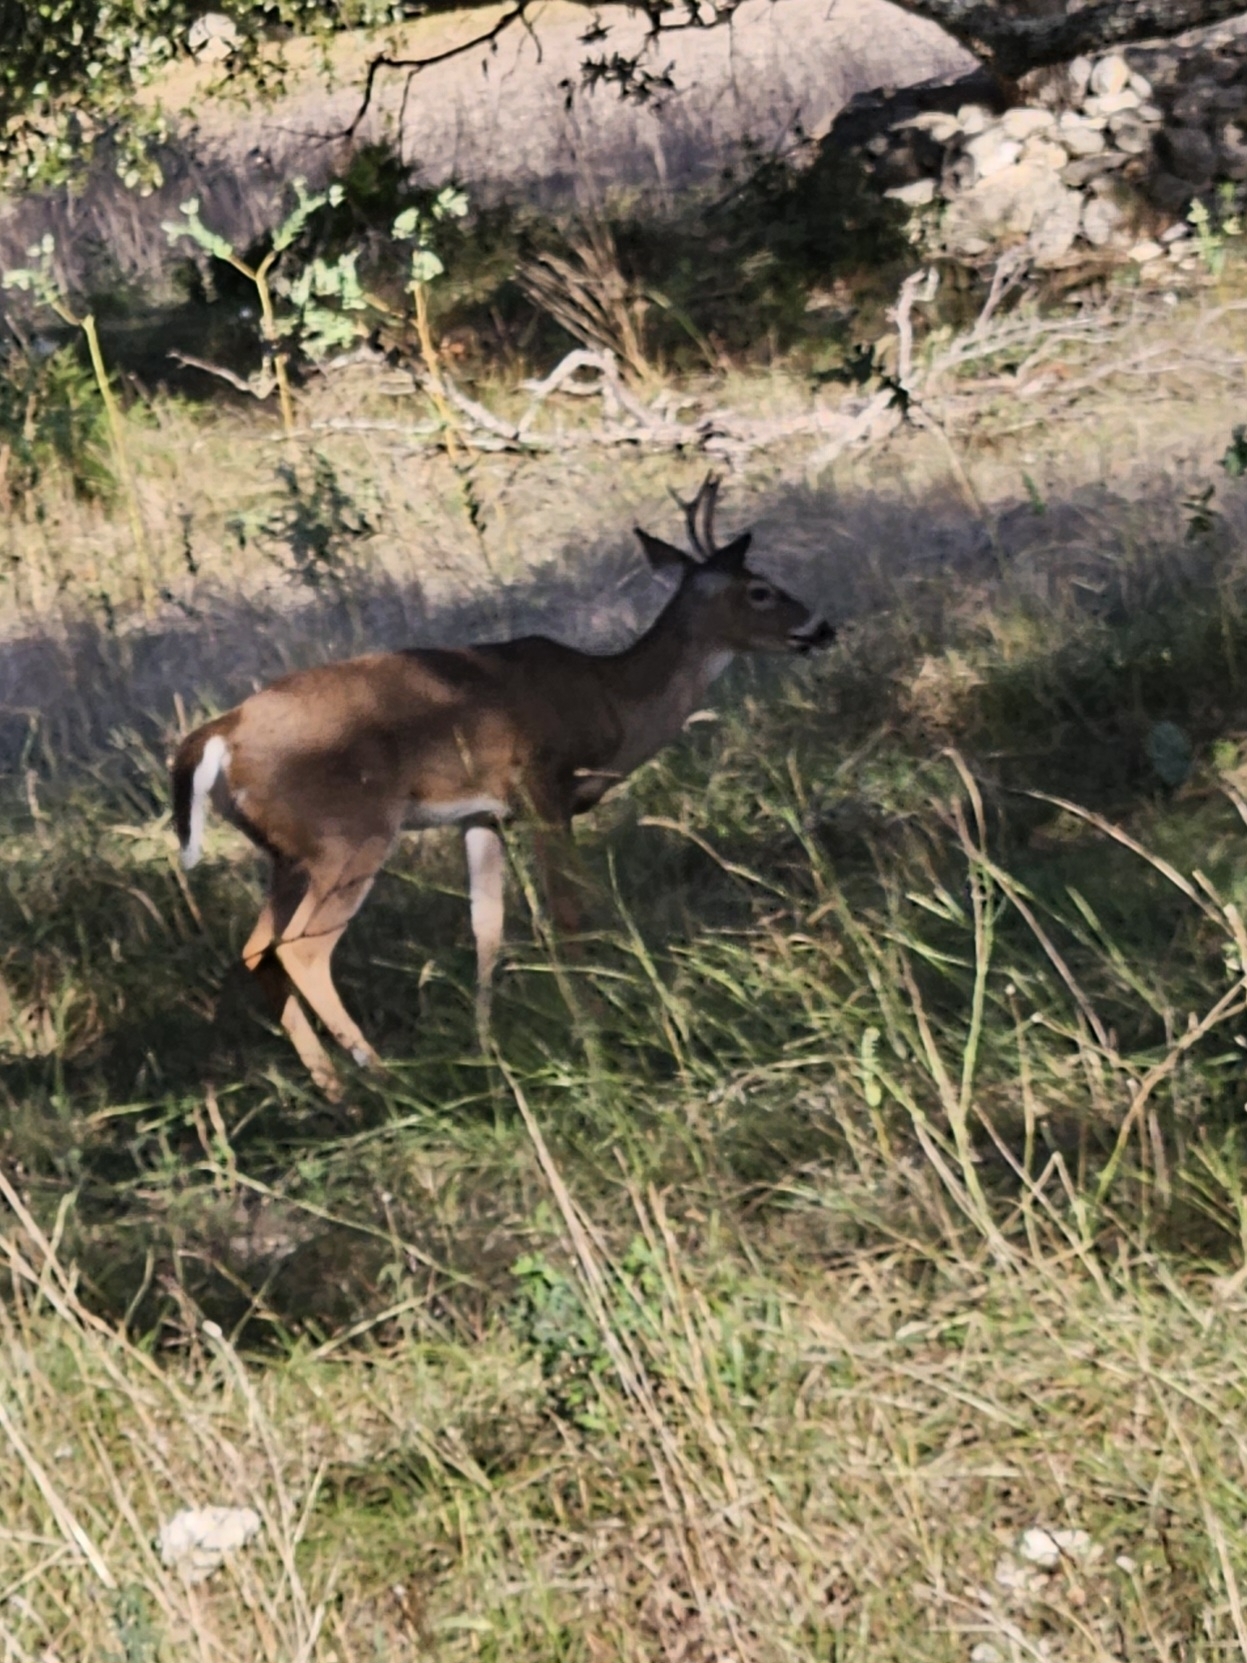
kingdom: Animalia
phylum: Chordata
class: Mammalia
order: Artiodactyla
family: Cervidae
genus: Odocoileus
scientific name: Odocoileus virginianus
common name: White-tailed deer
